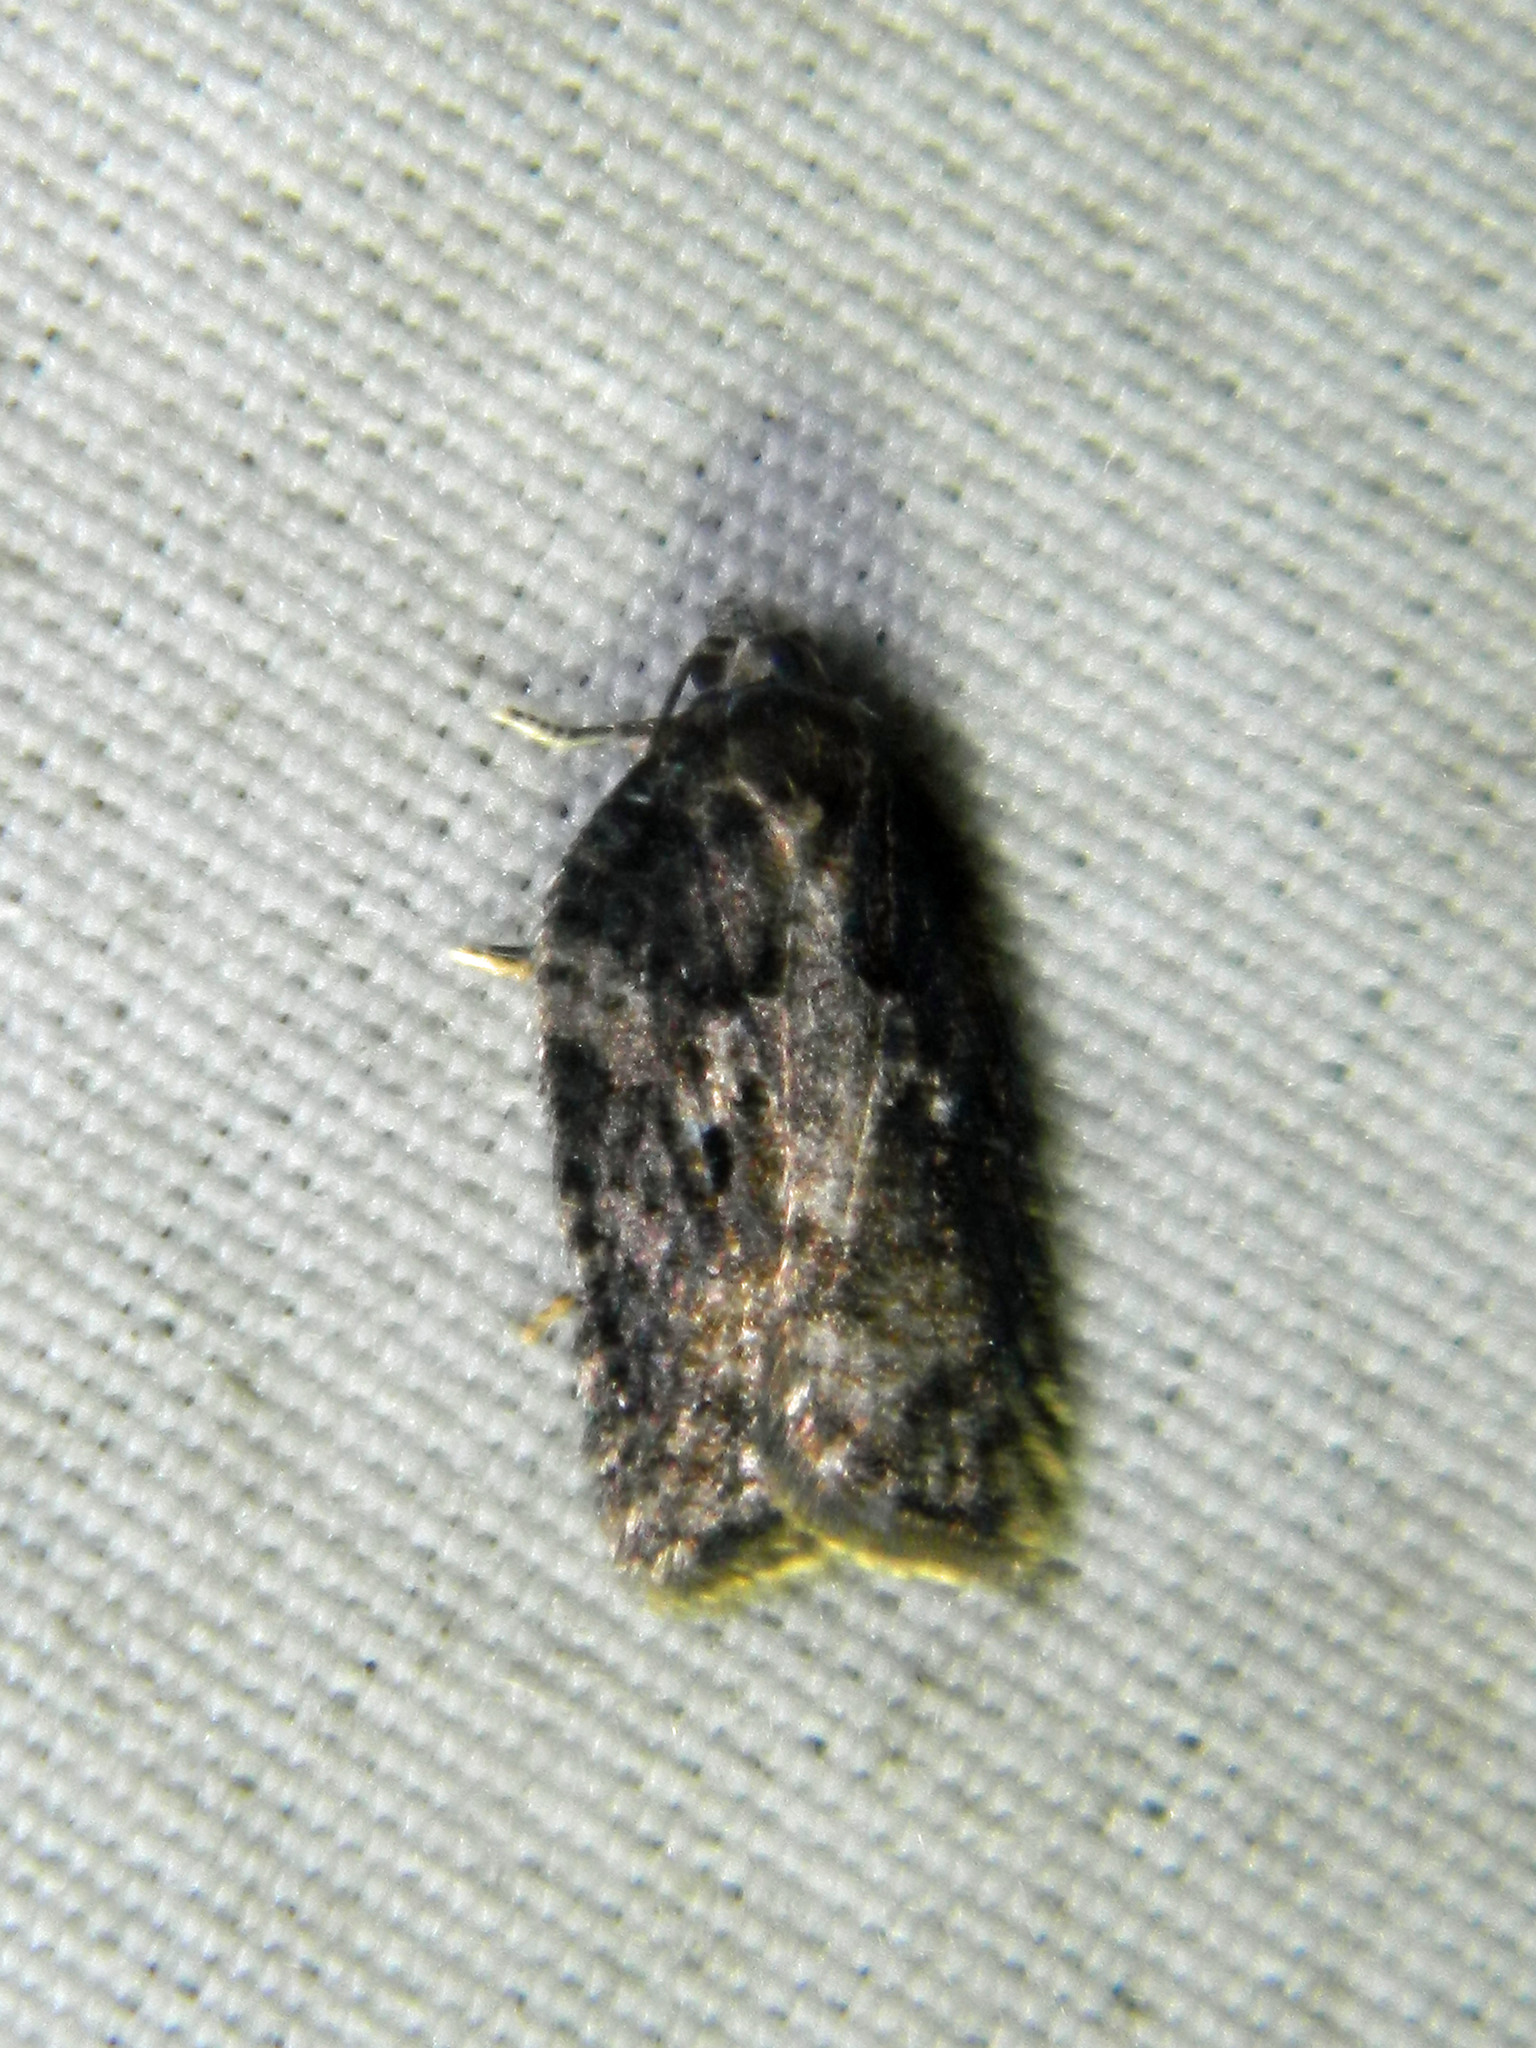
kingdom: Animalia
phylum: Arthropoda
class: Insecta
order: Lepidoptera
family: Tortricidae
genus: Acleris
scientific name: Acleris
